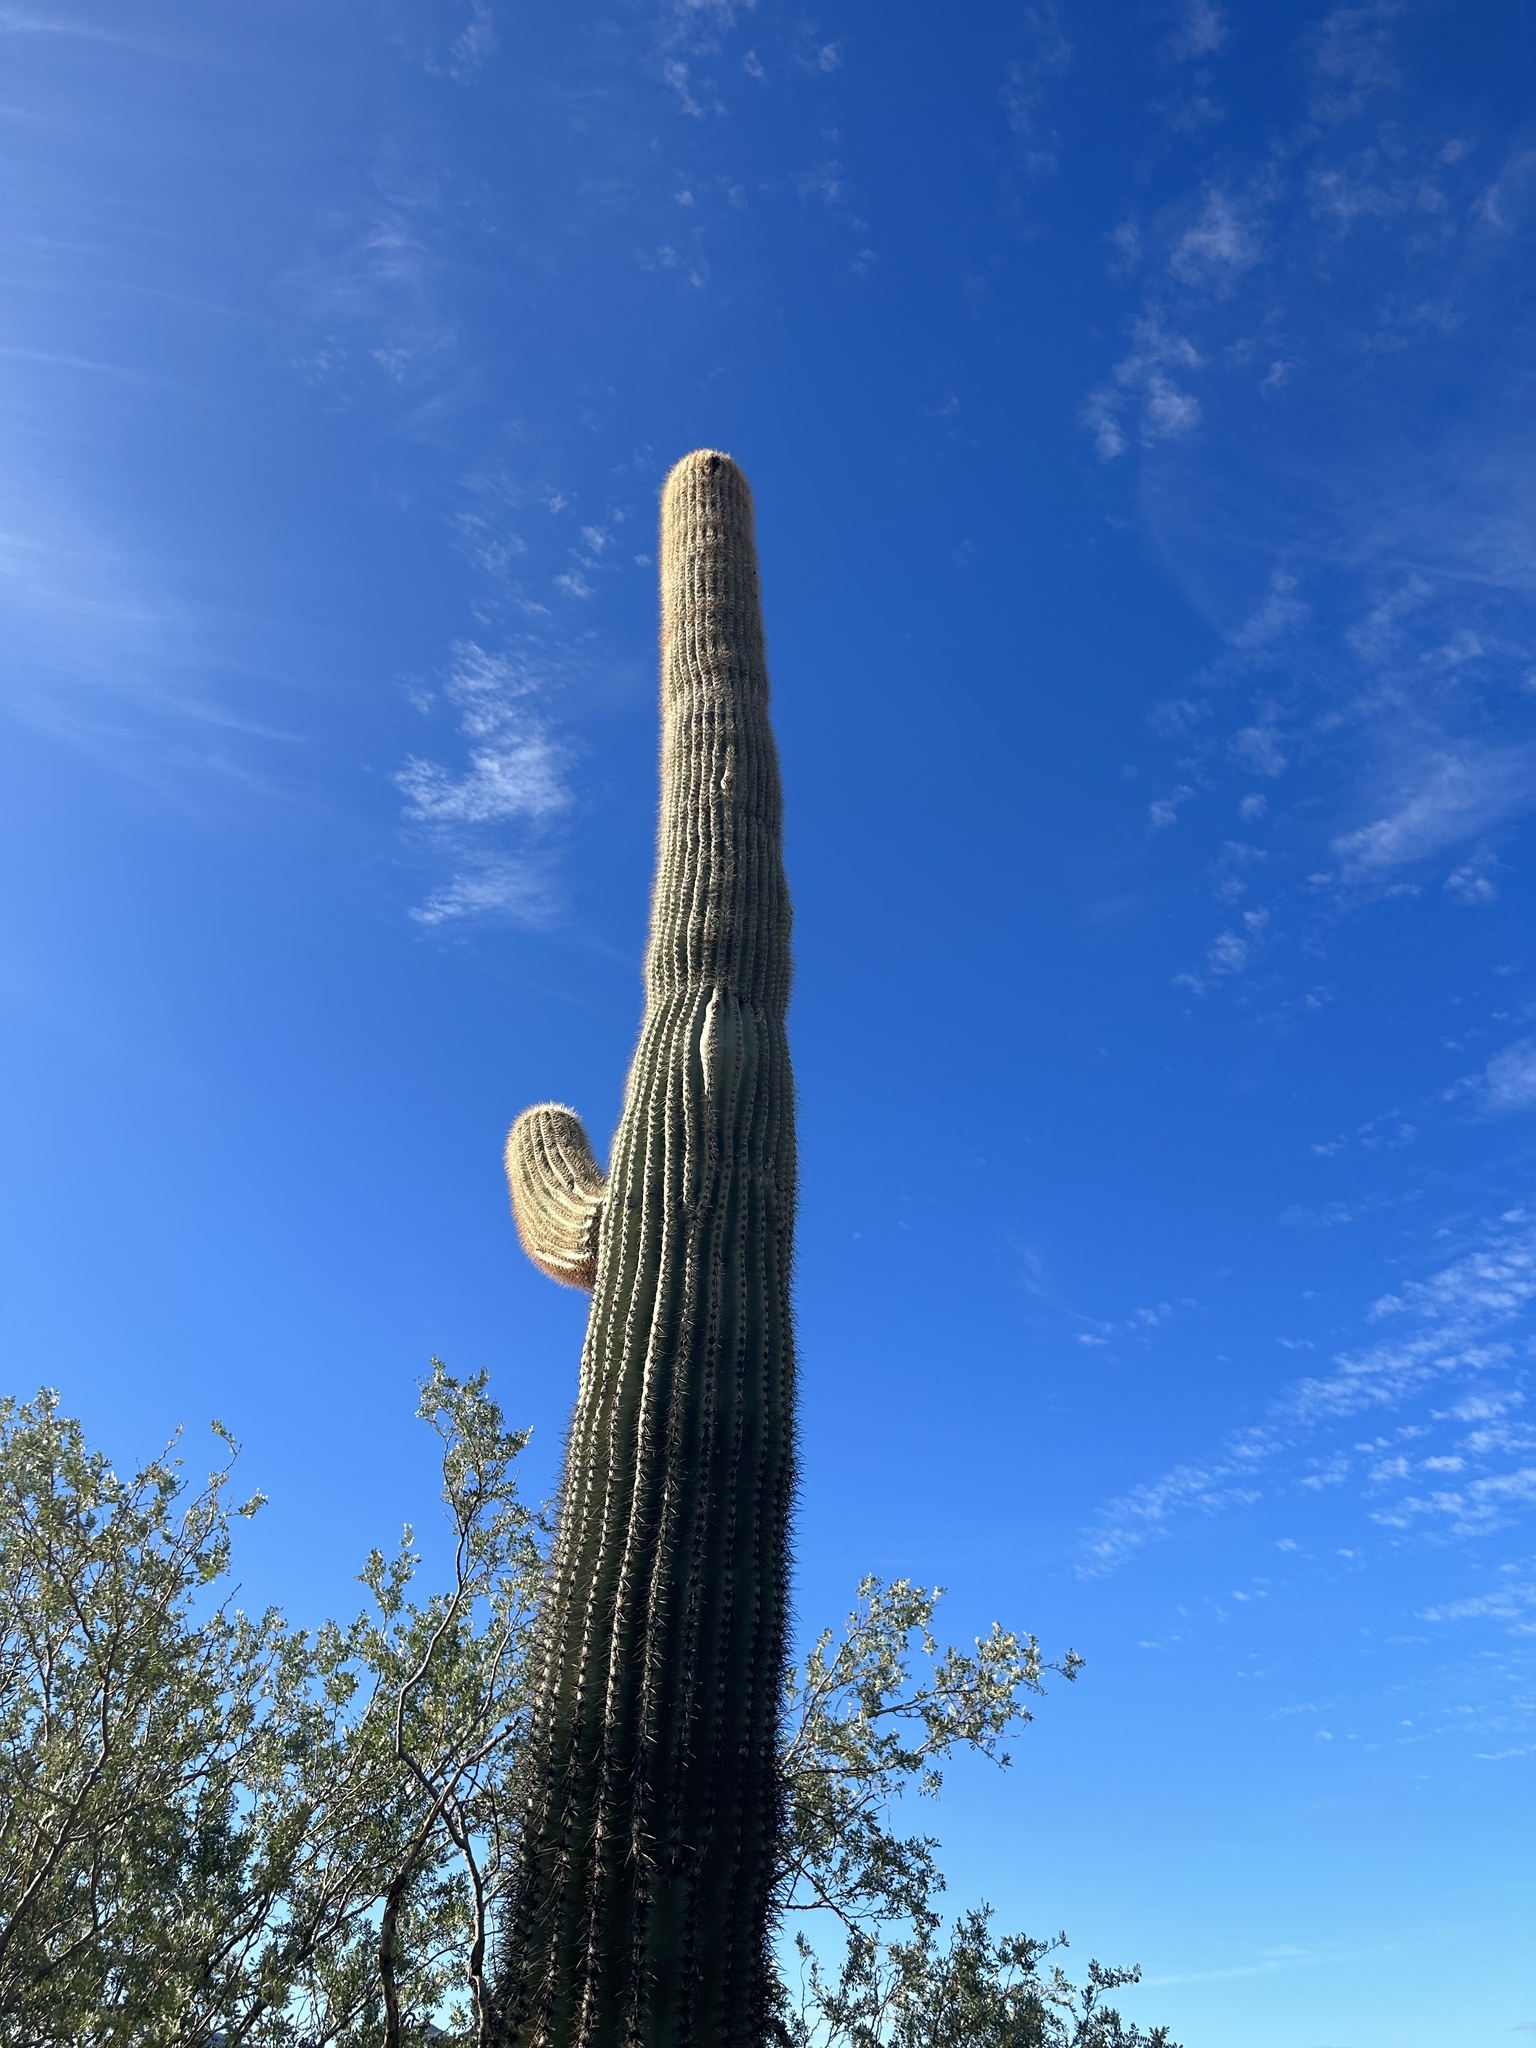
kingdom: Plantae
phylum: Tracheophyta
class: Magnoliopsida
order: Caryophyllales
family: Cactaceae
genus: Carnegiea
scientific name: Carnegiea gigantea
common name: Saguaro
